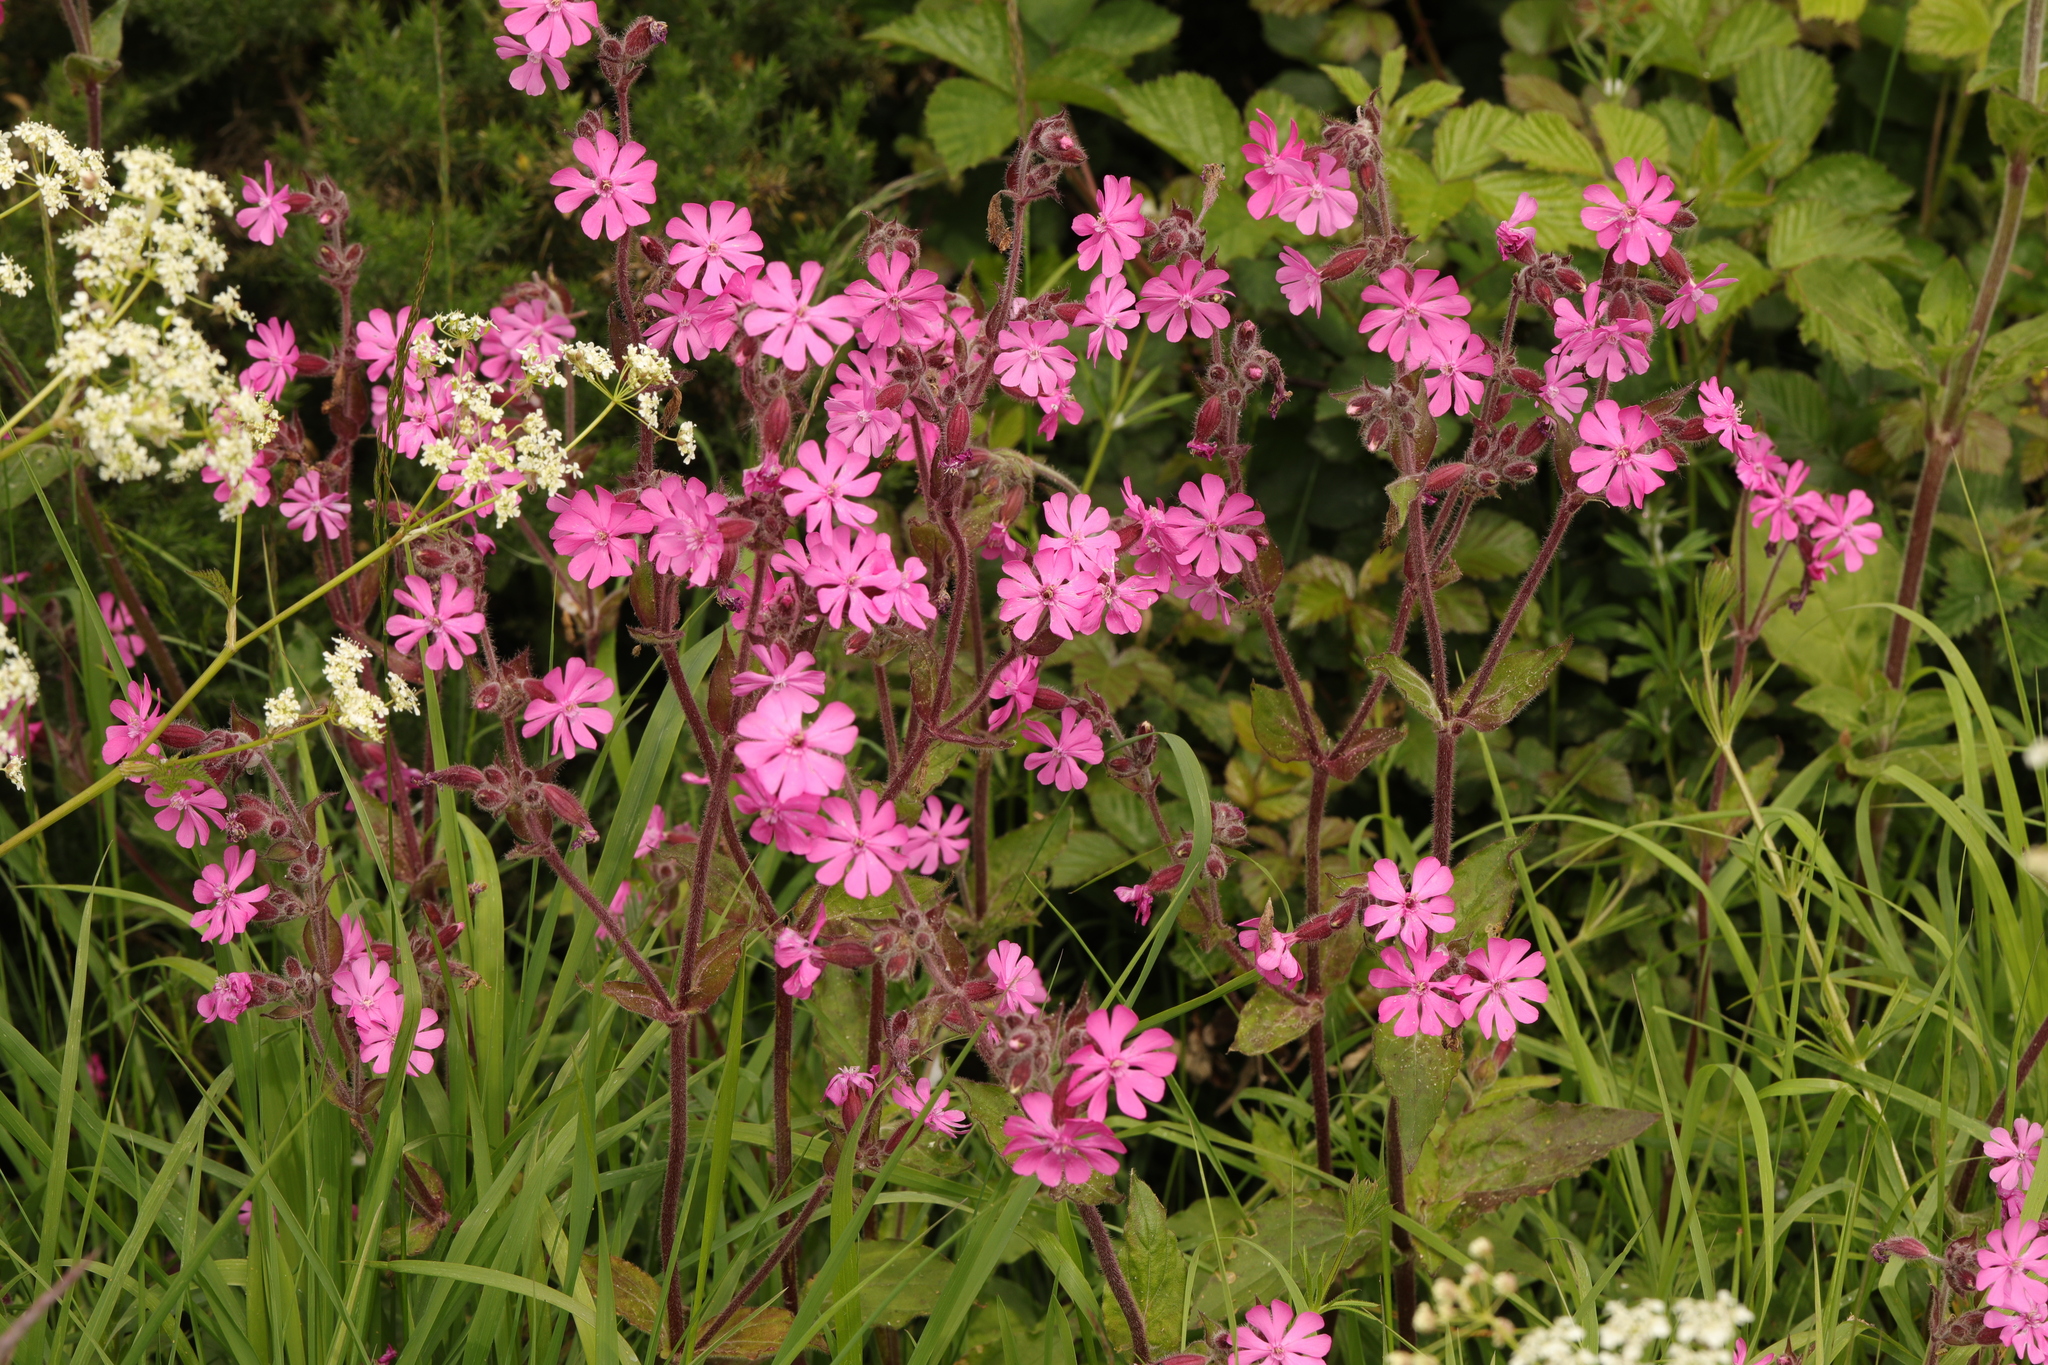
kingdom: Plantae
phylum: Tracheophyta
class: Magnoliopsida
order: Caryophyllales
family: Caryophyllaceae
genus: Silene
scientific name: Silene dioica
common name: Red campion
